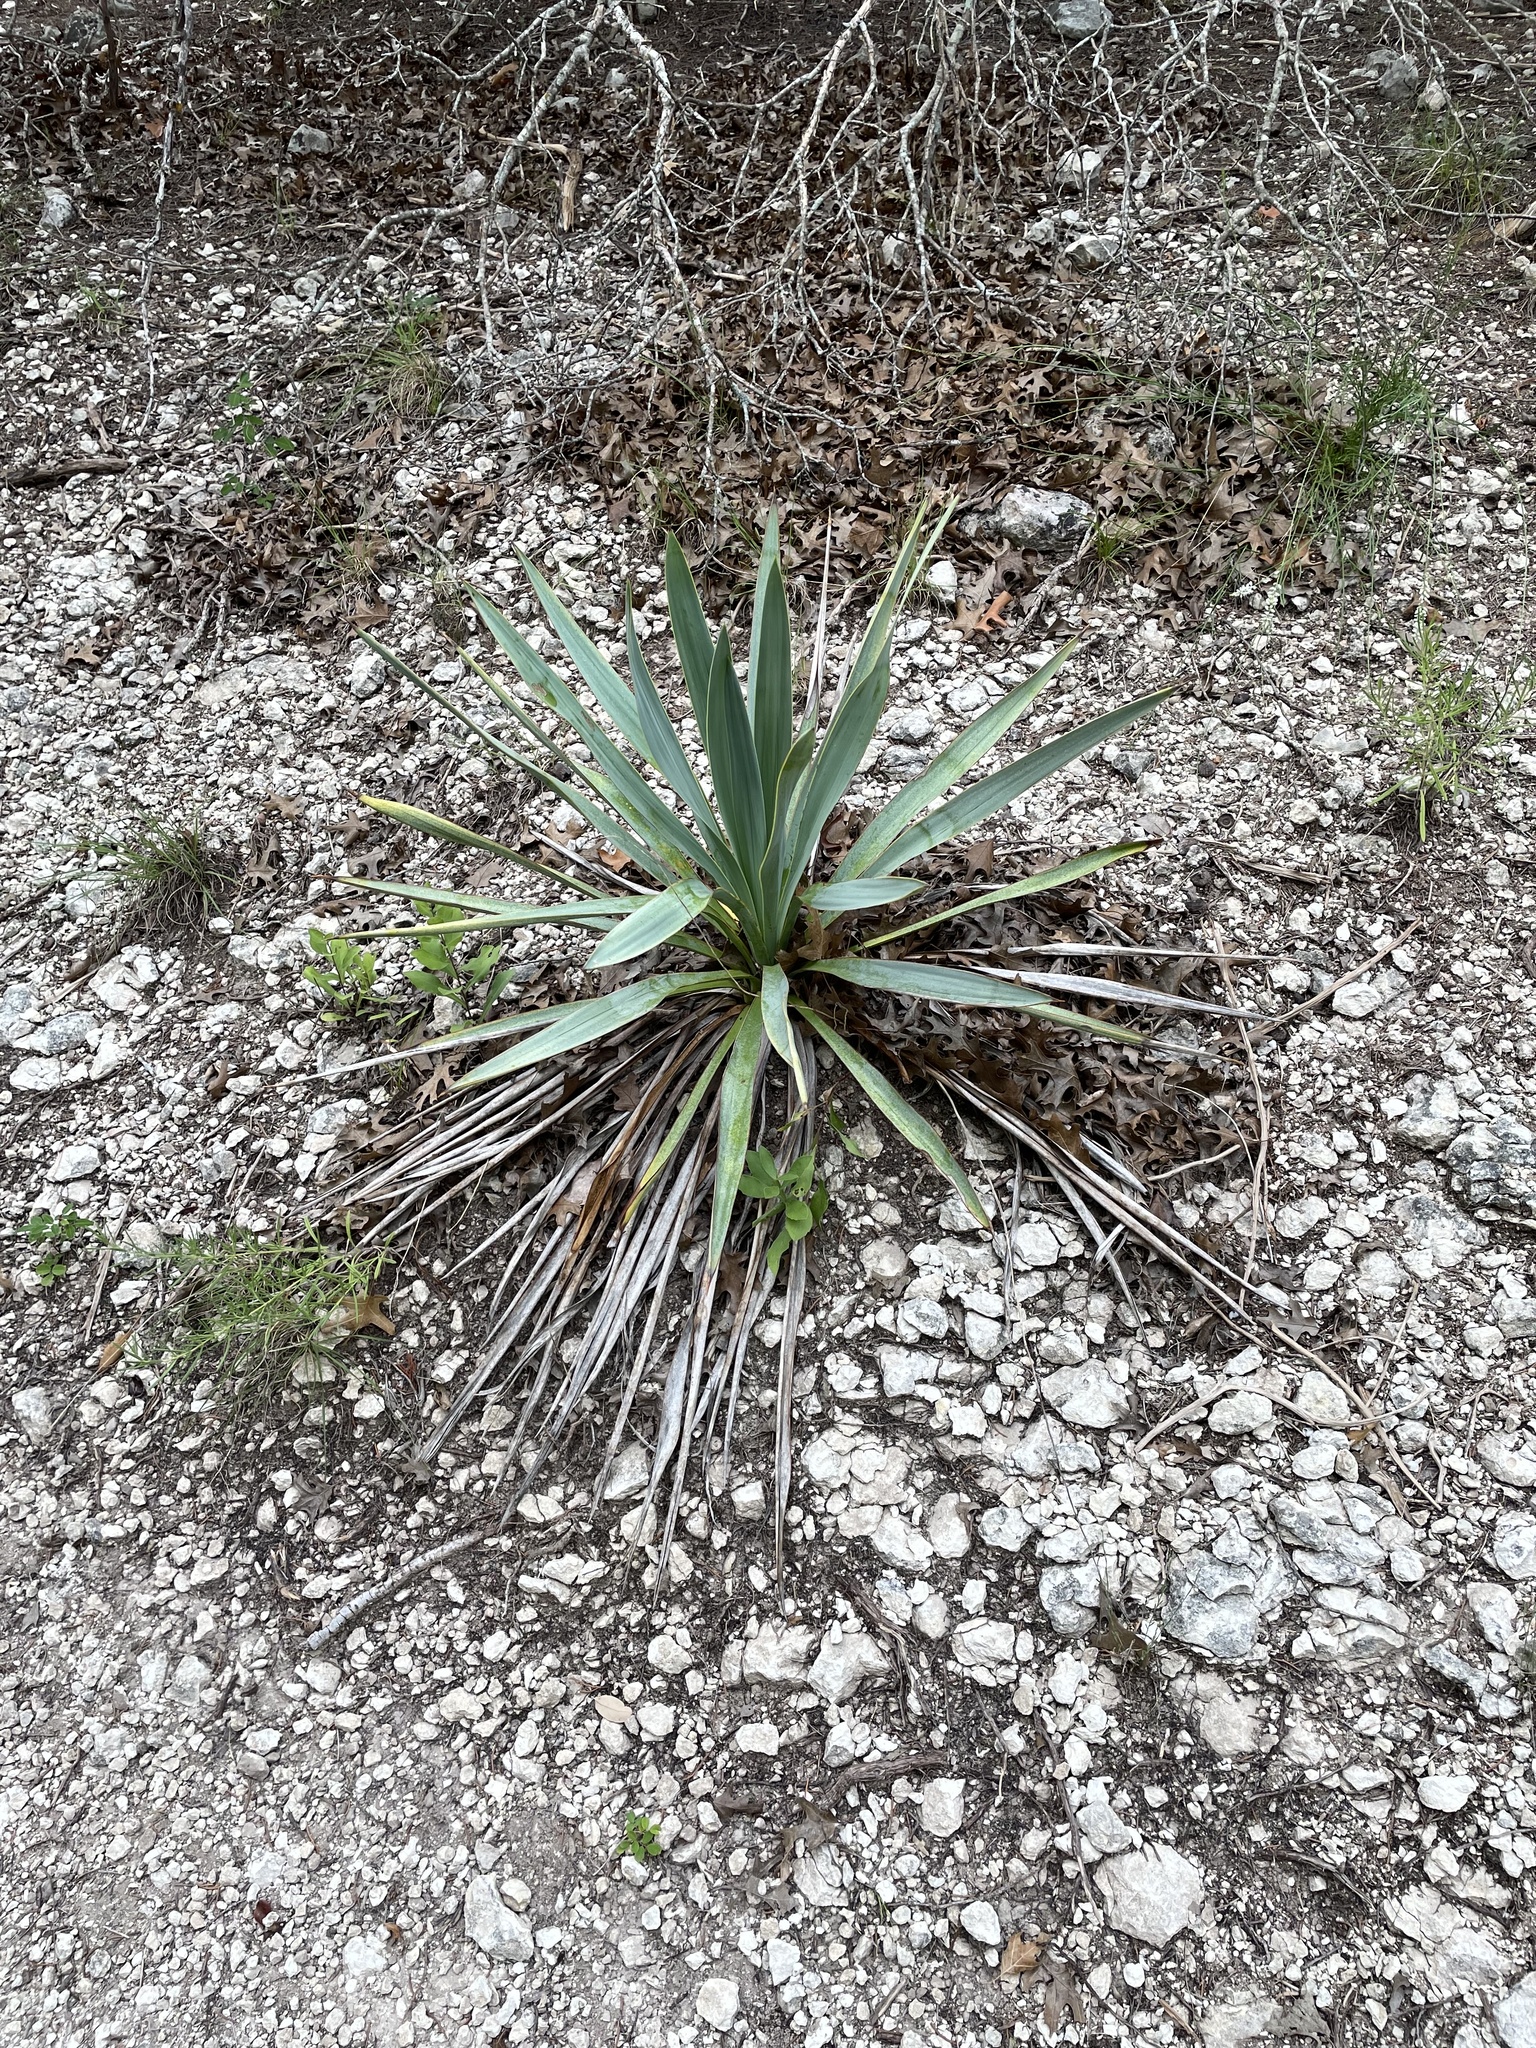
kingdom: Plantae
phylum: Tracheophyta
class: Liliopsida
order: Asparagales
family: Asparagaceae
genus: Yucca
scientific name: Yucca pallida
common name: Pale leaf yucca
